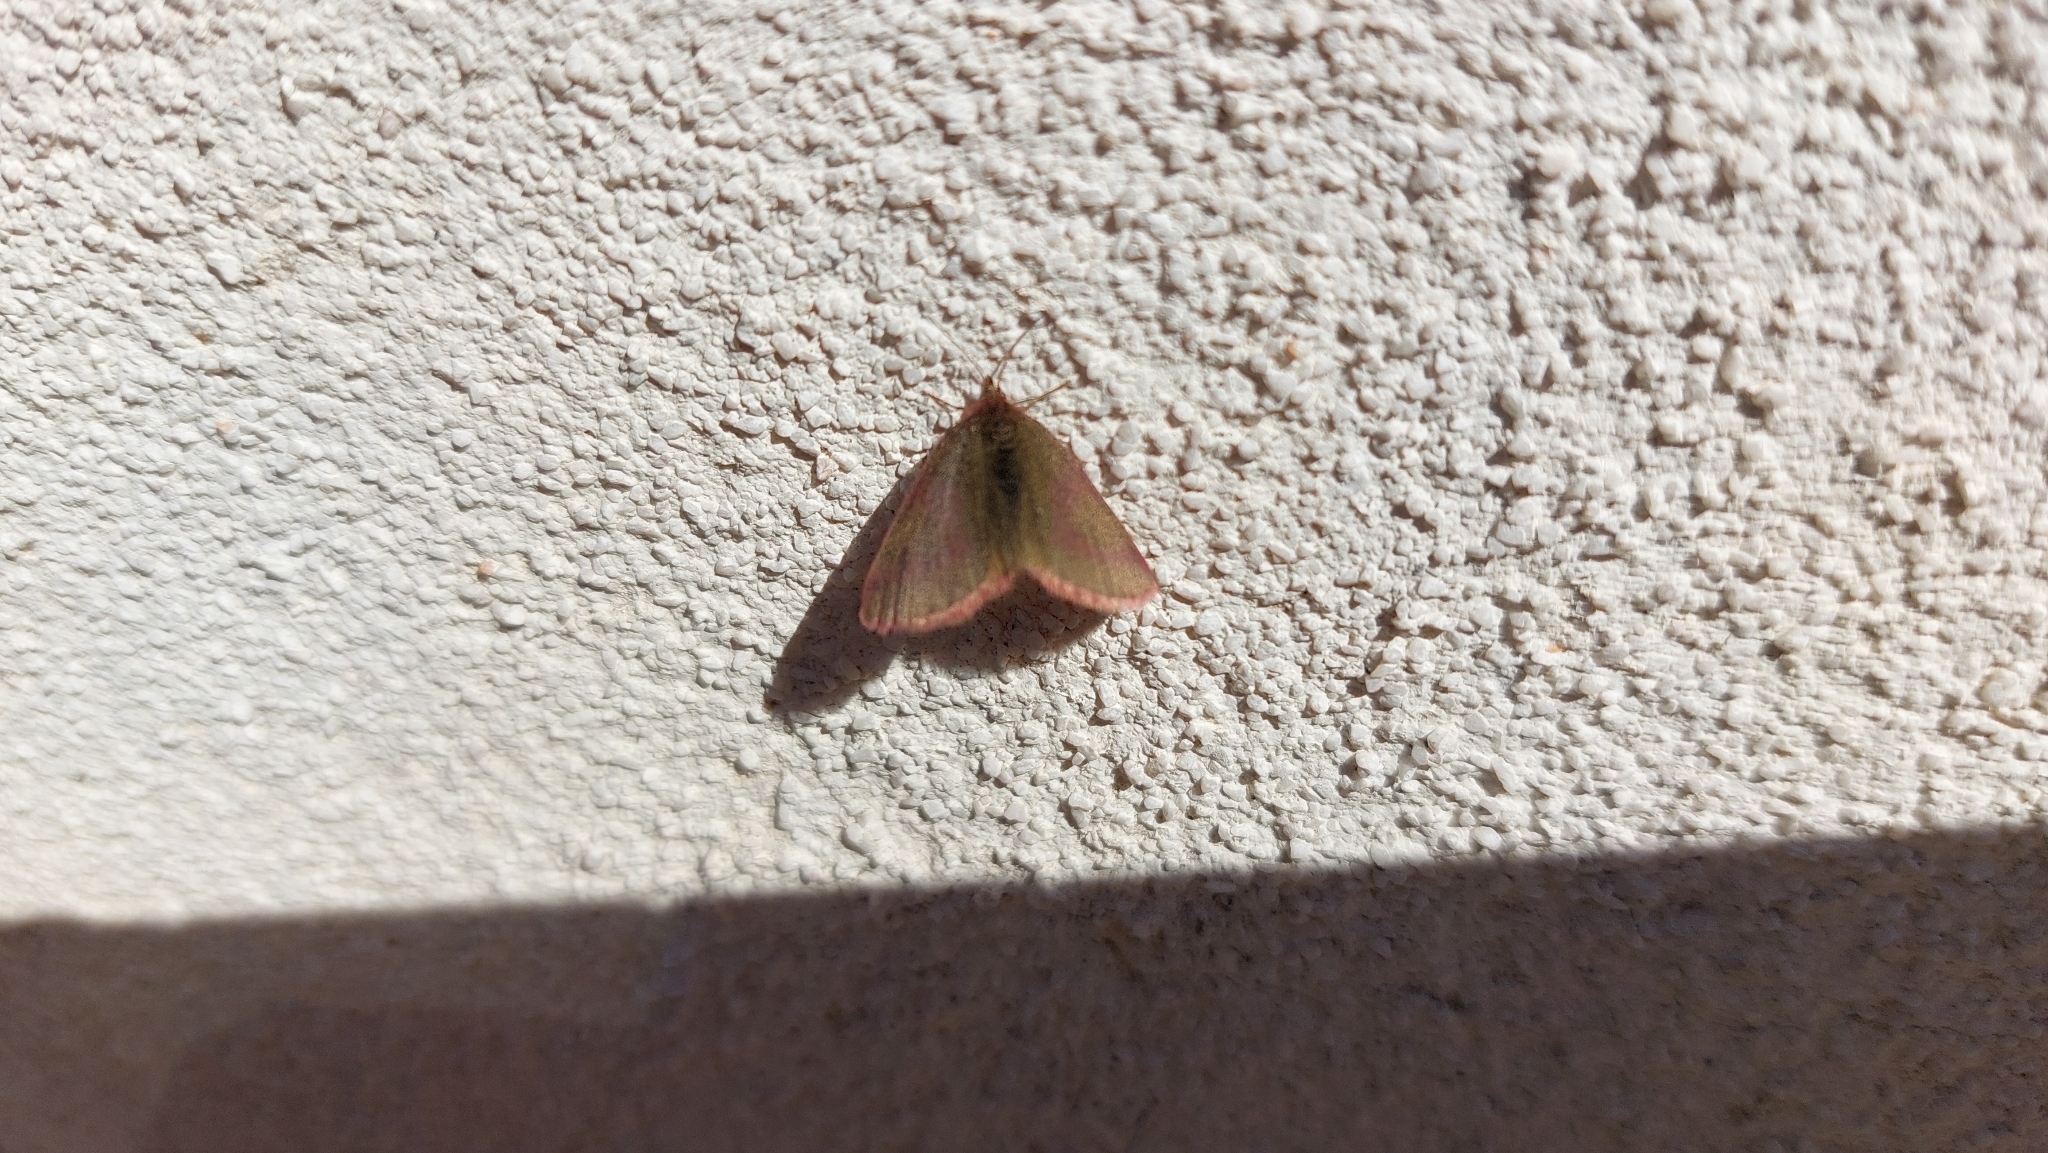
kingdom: Animalia
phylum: Arthropoda
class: Insecta
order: Lepidoptera
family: Geometridae
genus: Lythria
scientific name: Lythria purpuraria
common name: Purple-barred yellow
